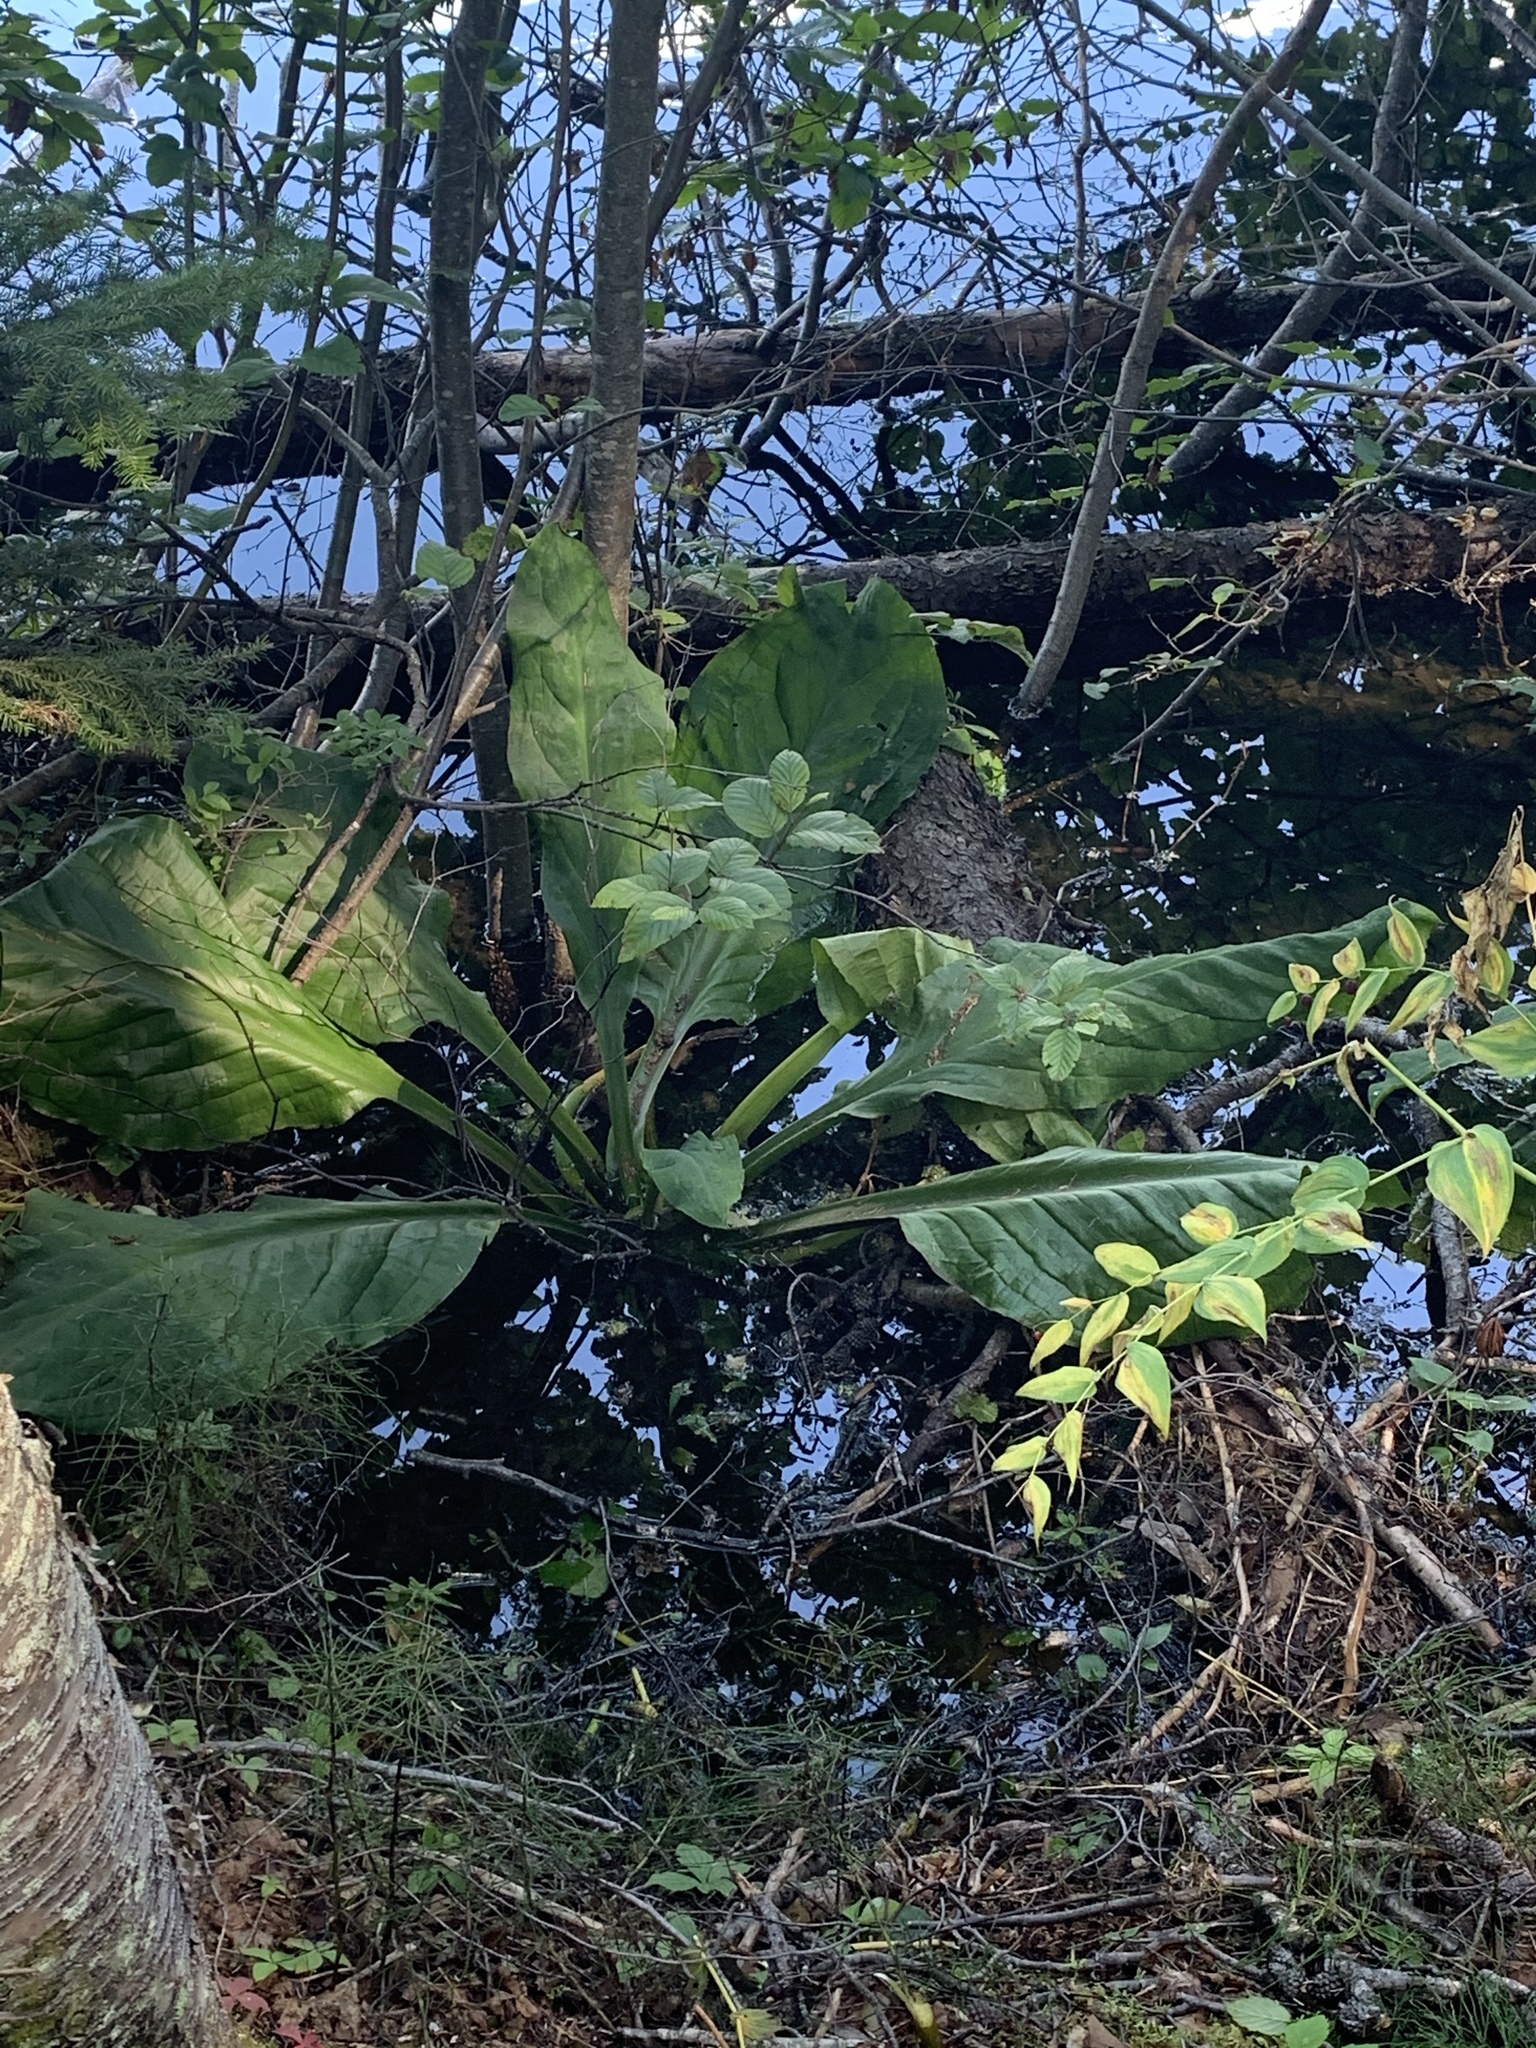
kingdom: Plantae
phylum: Tracheophyta
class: Liliopsida
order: Alismatales
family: Araceae
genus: Lysichiton
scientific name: Lysichiton americanus
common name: American skunk cabbage
